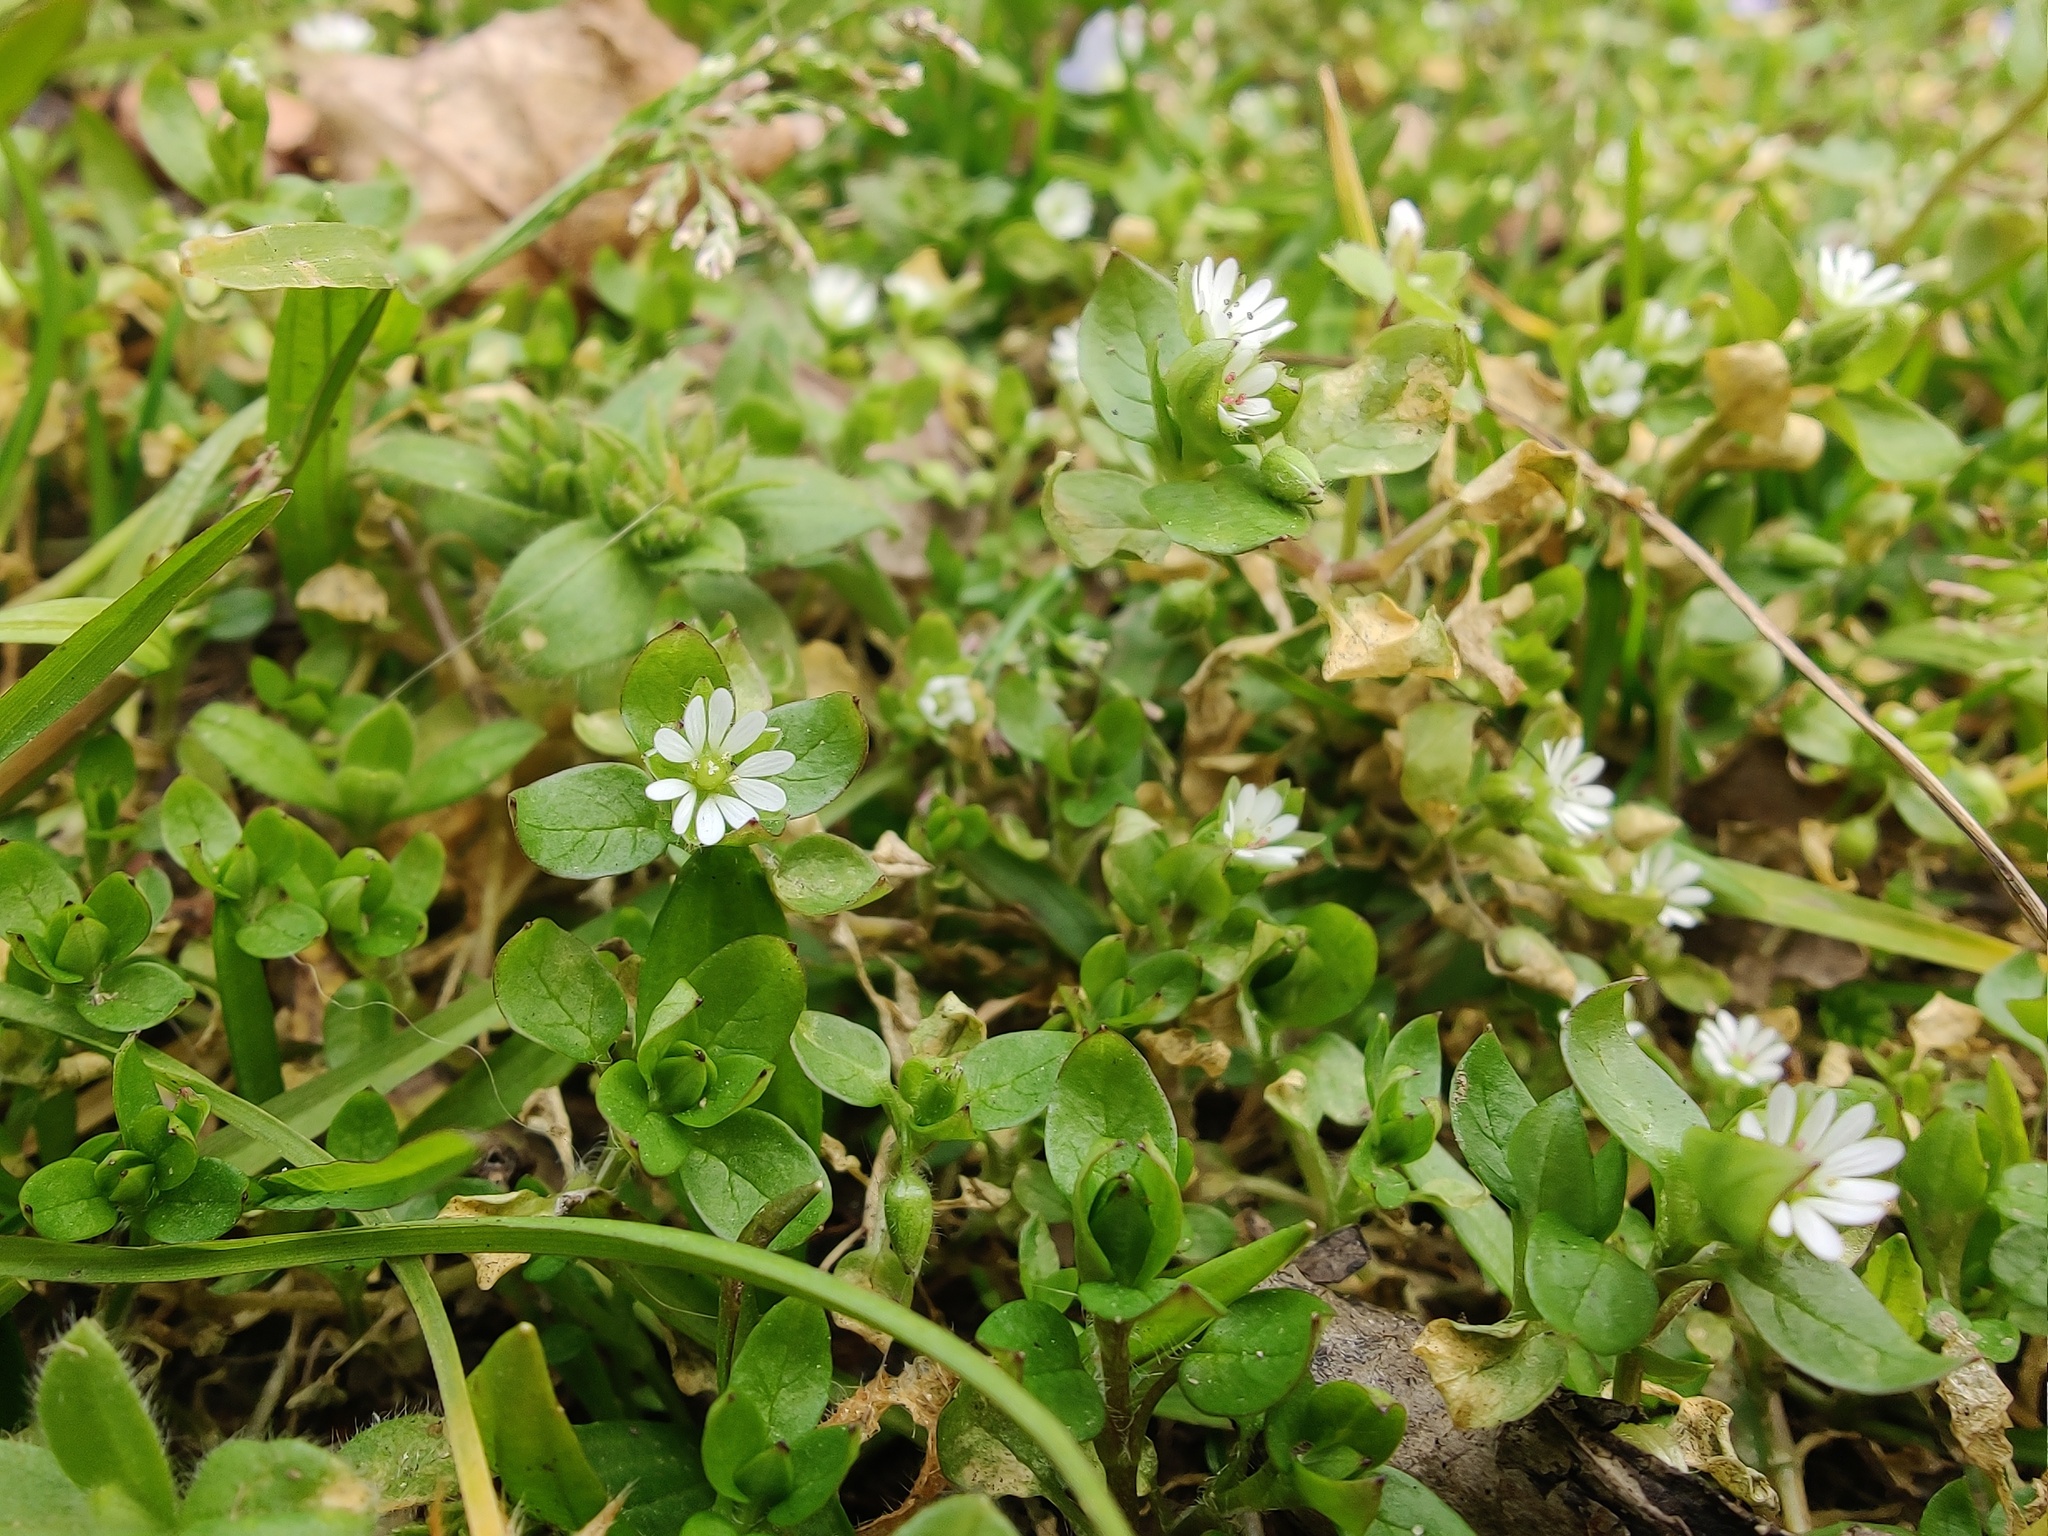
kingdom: Plantae
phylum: Tracheophyta
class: Magnoliopsida
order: Caryophyllales
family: Caryophyllaceae
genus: Stellaria
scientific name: Stellaria media
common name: Common chickweed
